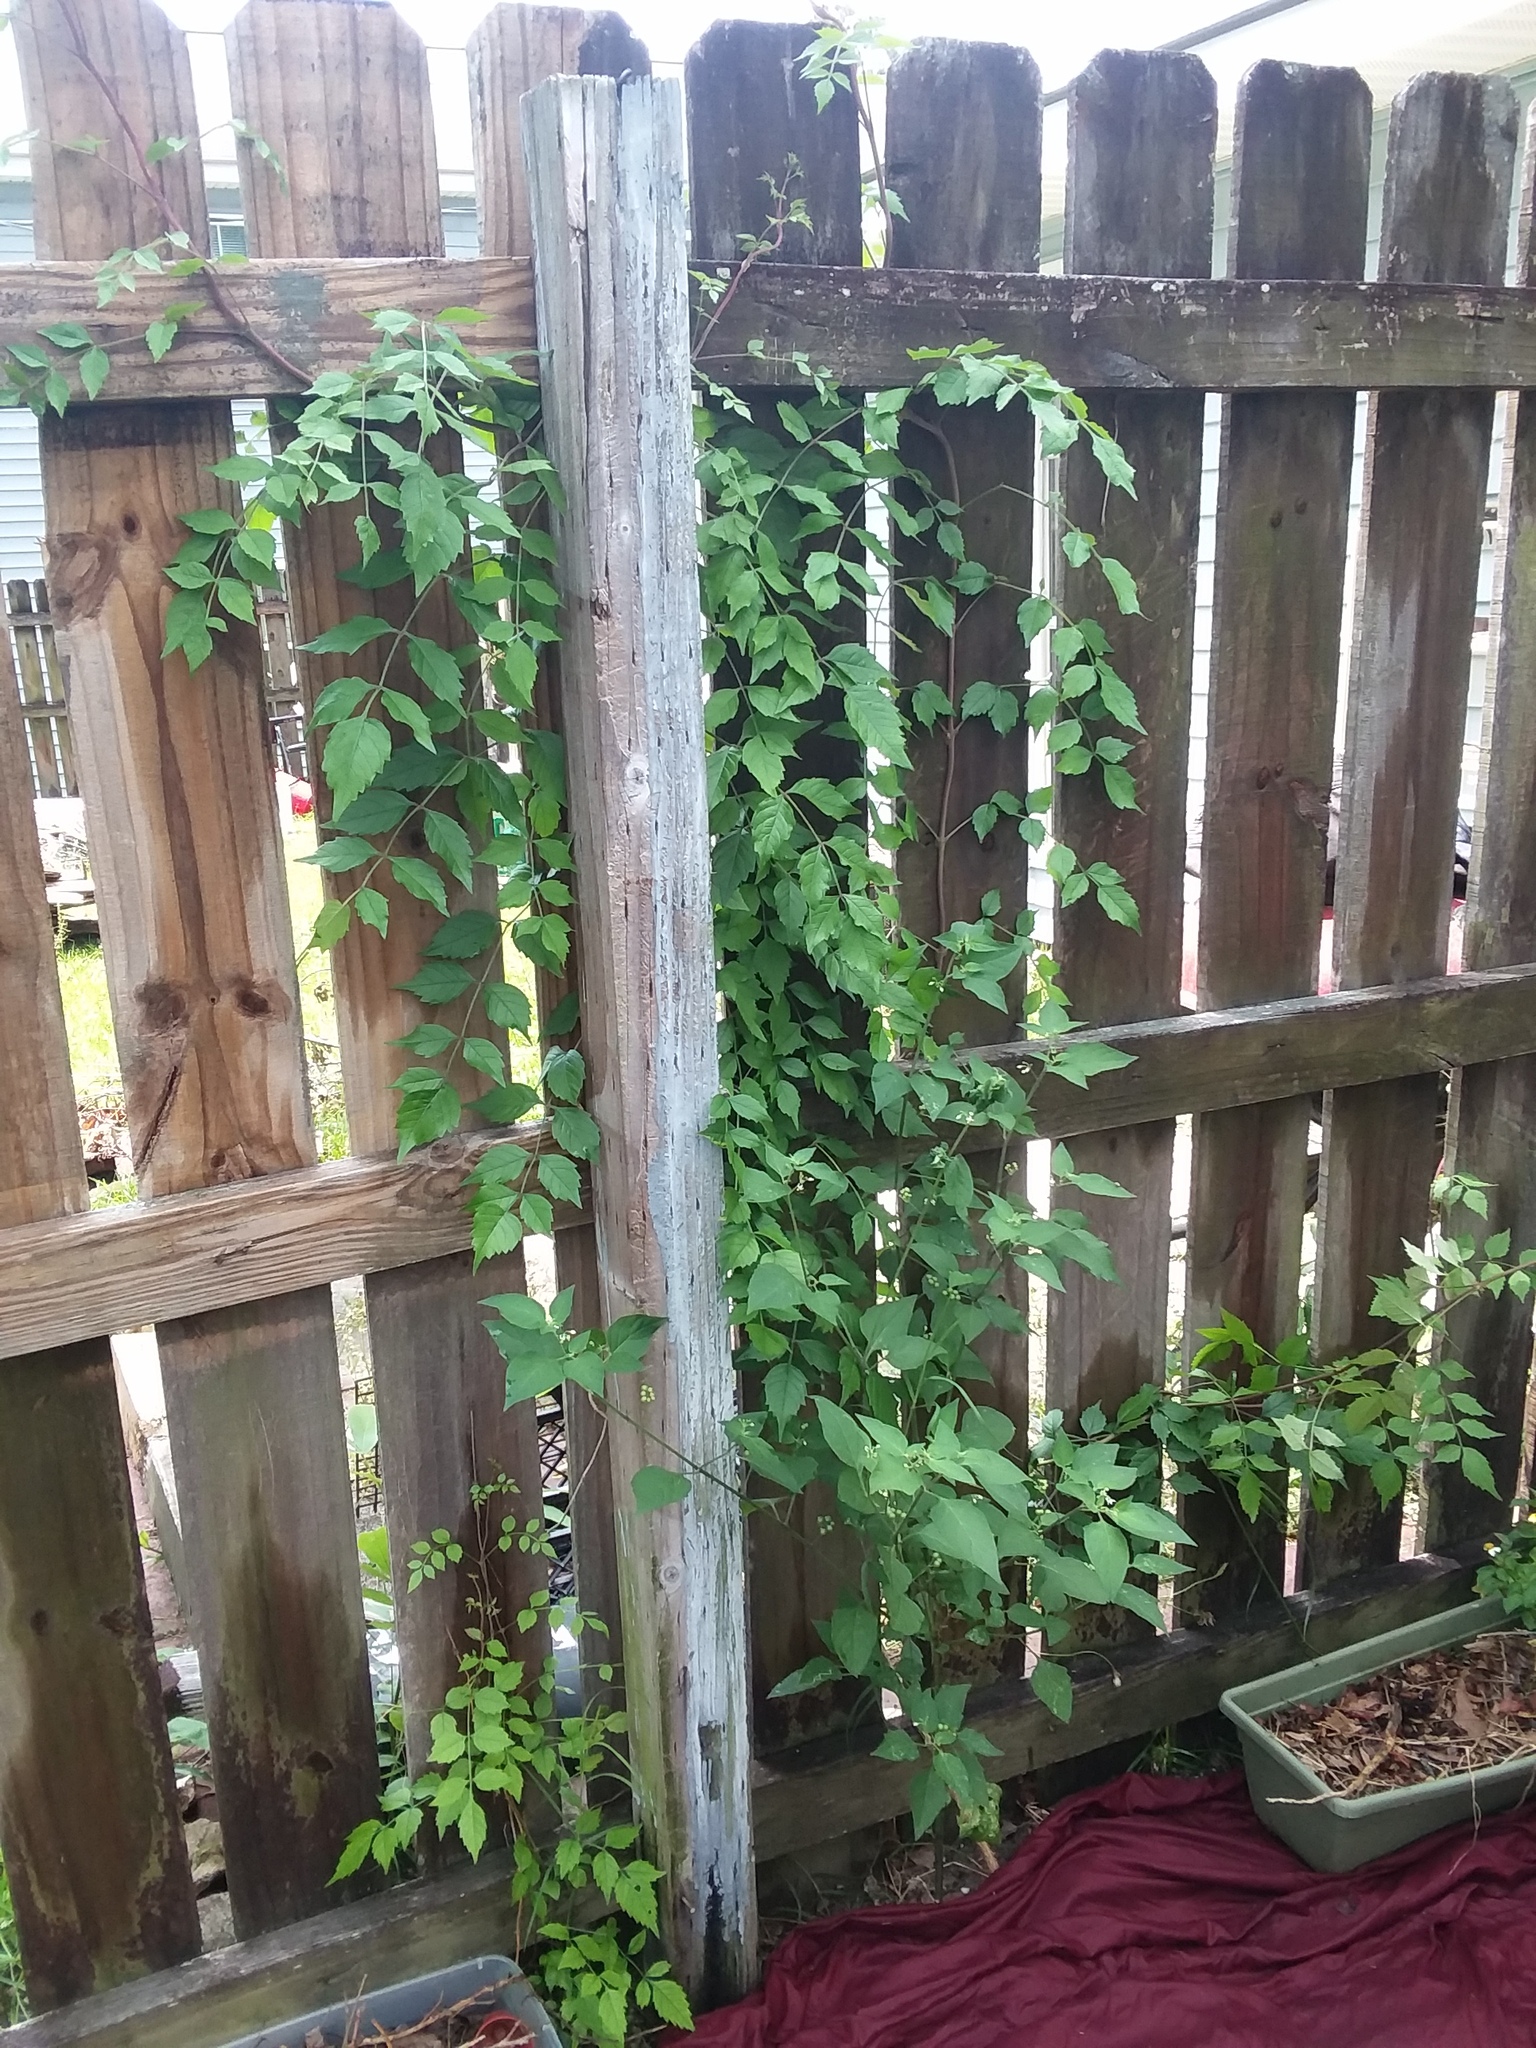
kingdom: Plantae
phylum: Tracheophyta
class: Magnoliopsida
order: Lamiales
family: Bignoniaceae
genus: Campsis
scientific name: Campsis radicans
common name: Trumpet-creeper
